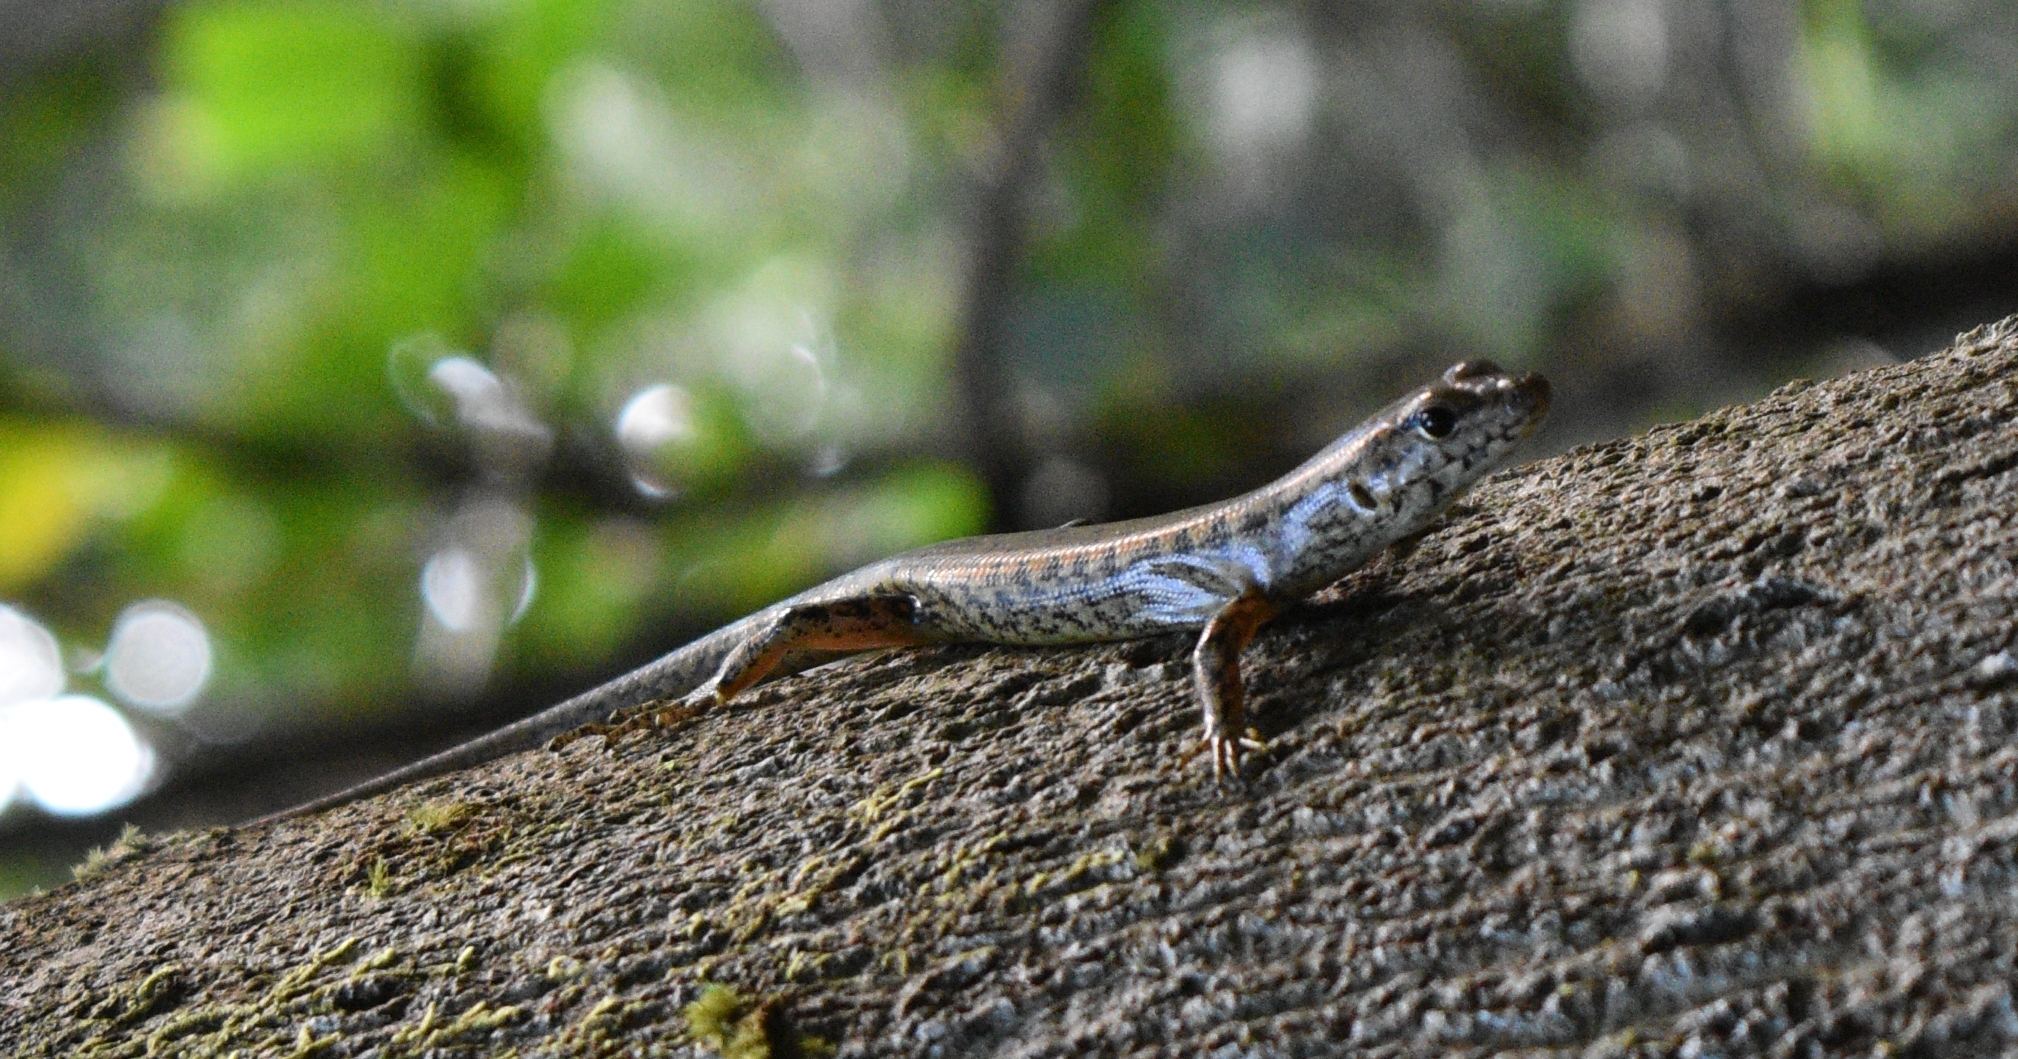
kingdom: Animalia
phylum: Chordata
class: Squamata
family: Scincidae
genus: Concinnia
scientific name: Concinnia tigrina
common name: Rainforest water-skink
